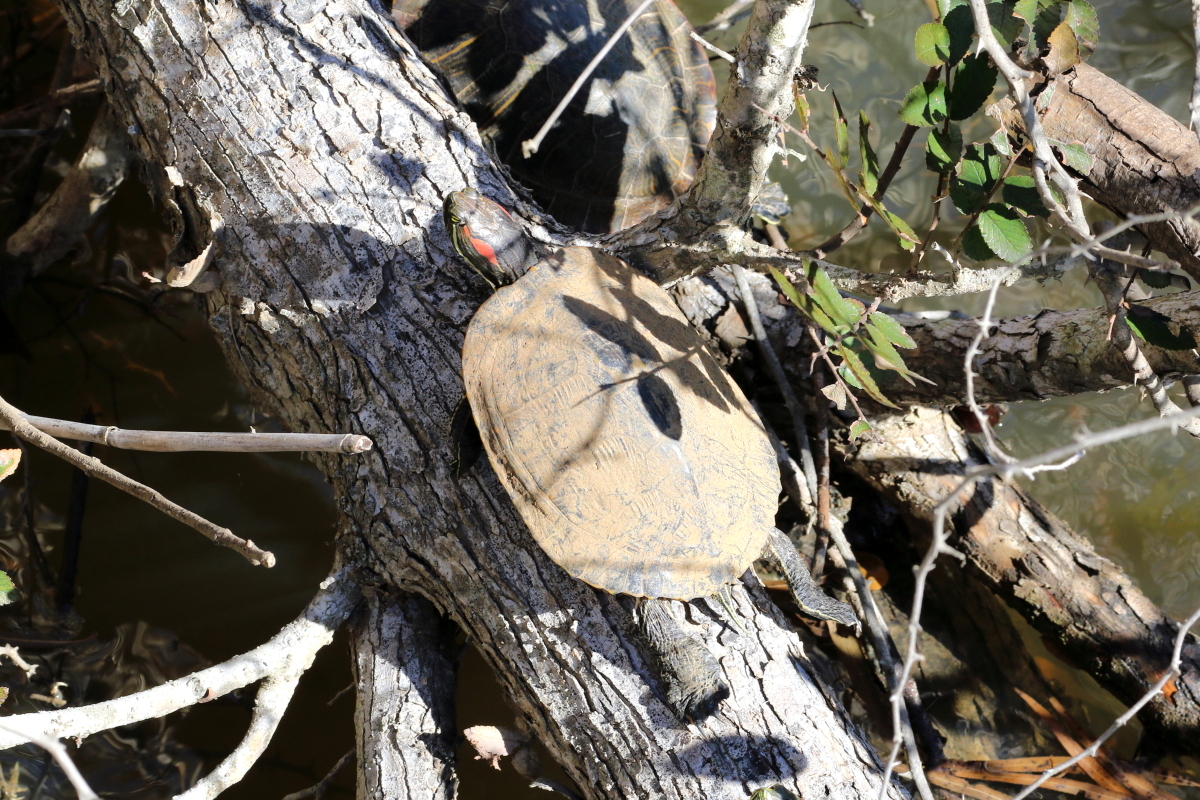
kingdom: Animalia
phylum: Chordata
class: Testudines
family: Emydidae
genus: Trachemys
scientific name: Trachemys scripta
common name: Slider
